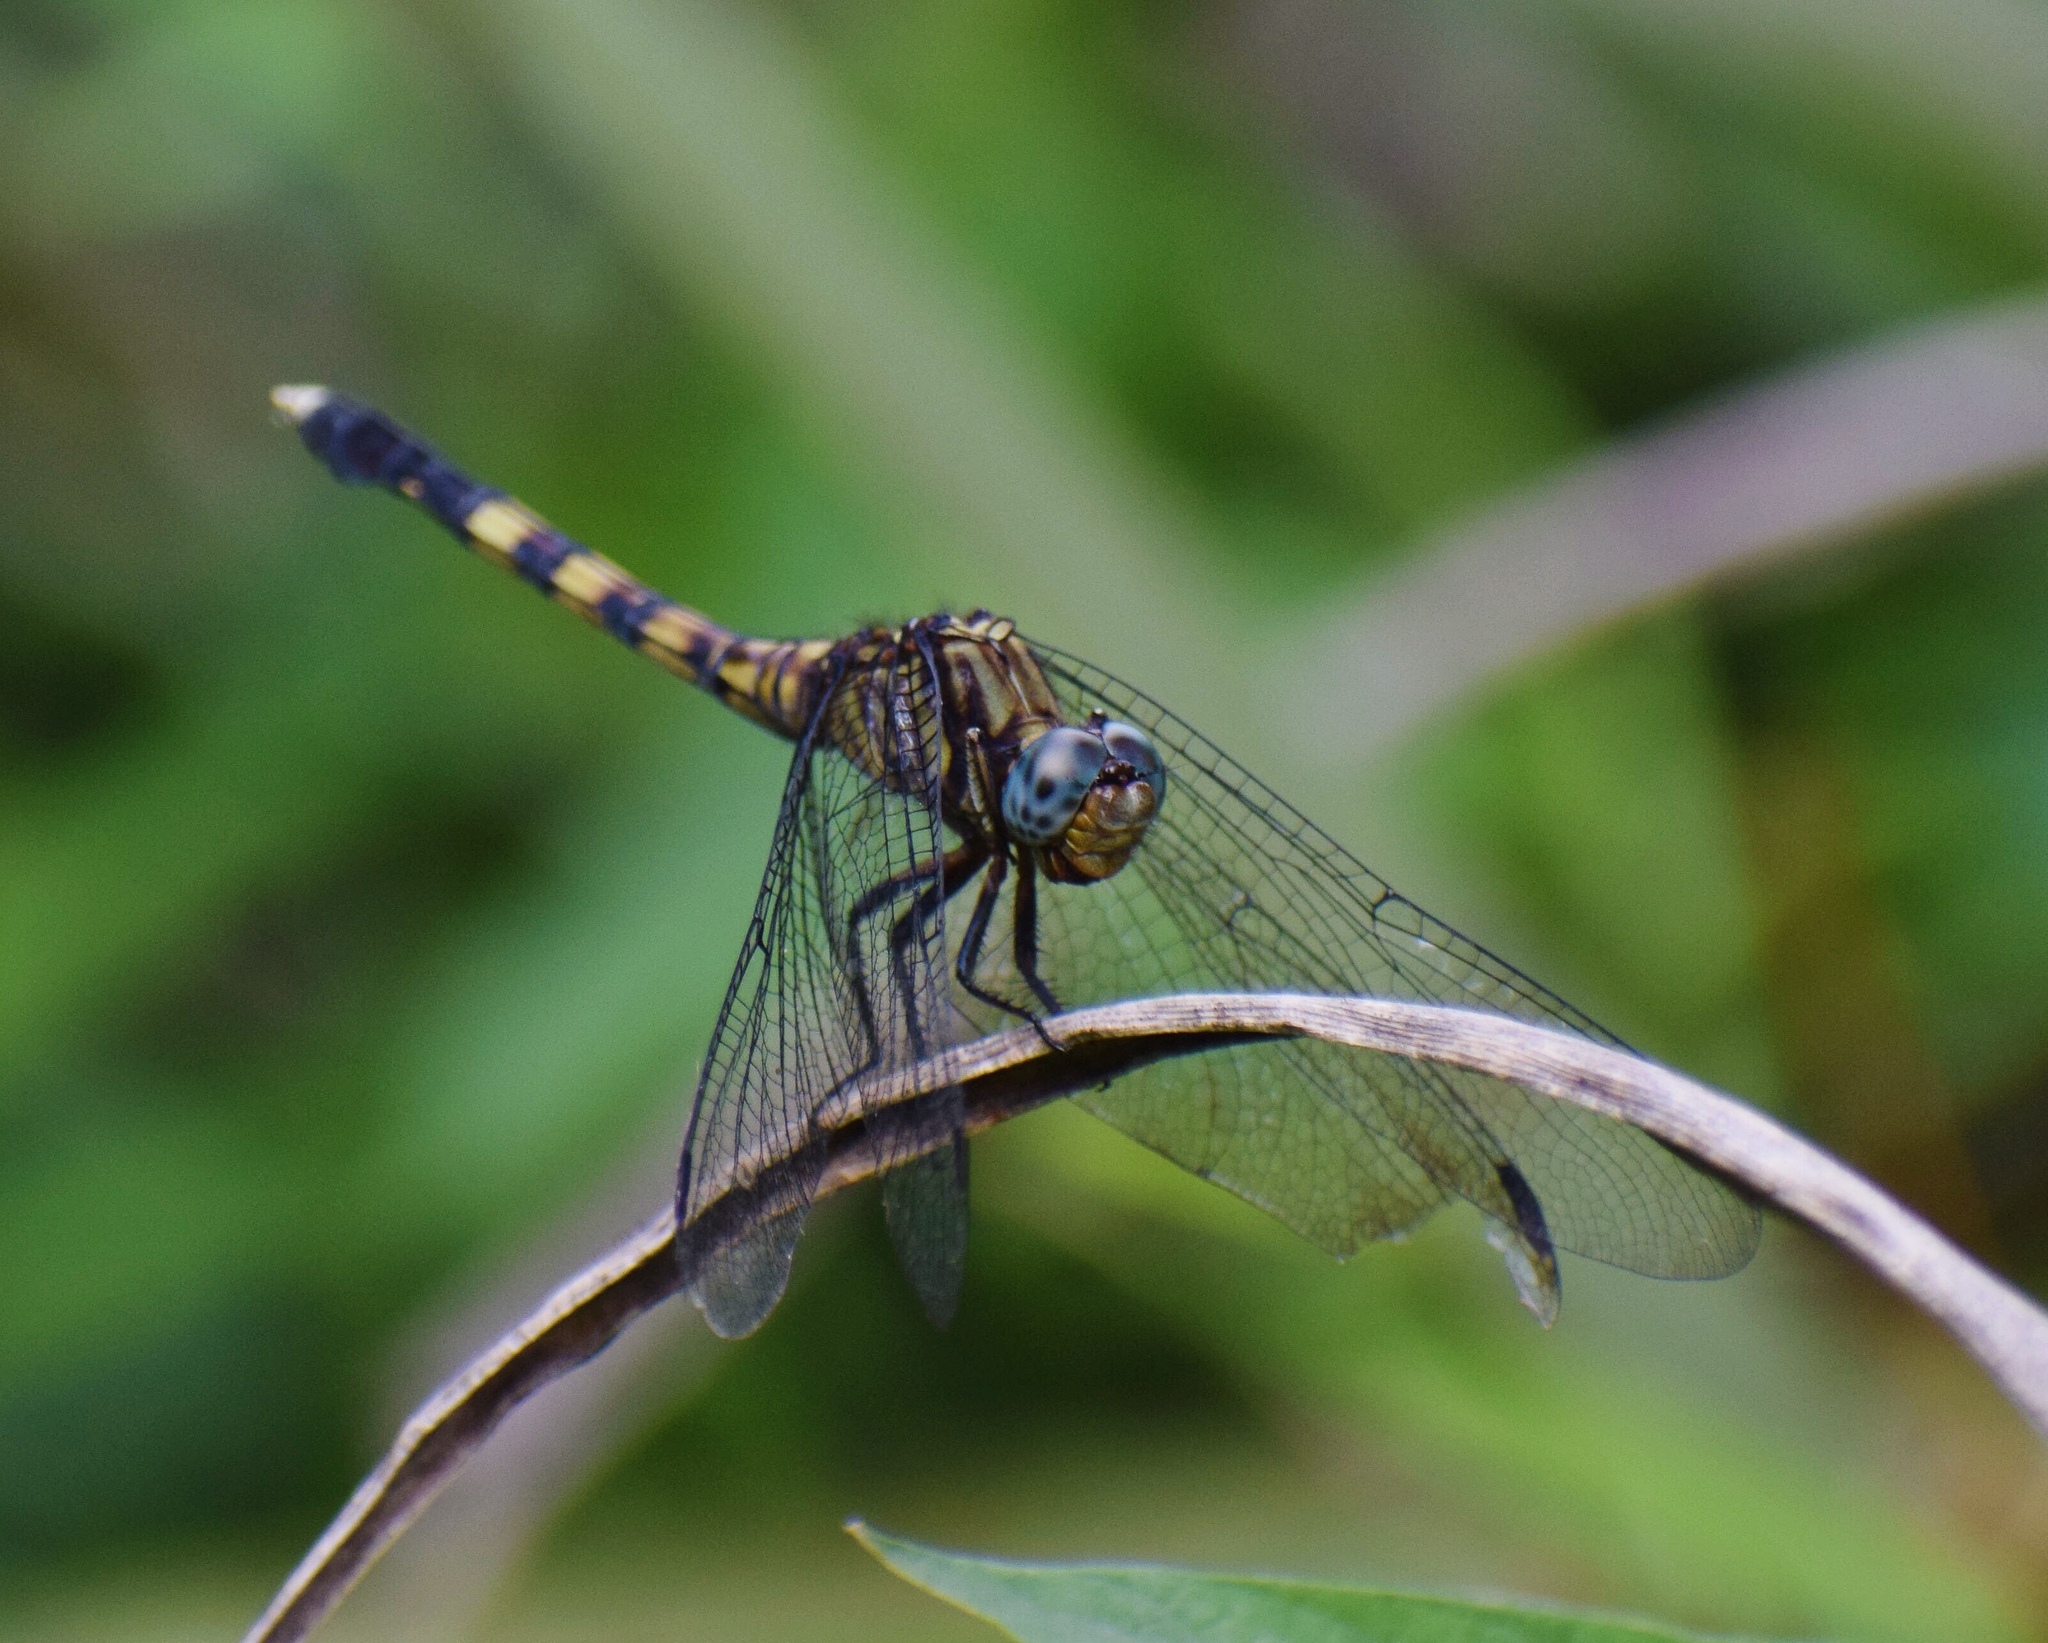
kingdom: Animalia
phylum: Arthropoda
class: Insecta
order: Odonata
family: Libellulidae
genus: Orthetrum
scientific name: Orthetrum julia
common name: Julia skimmer
